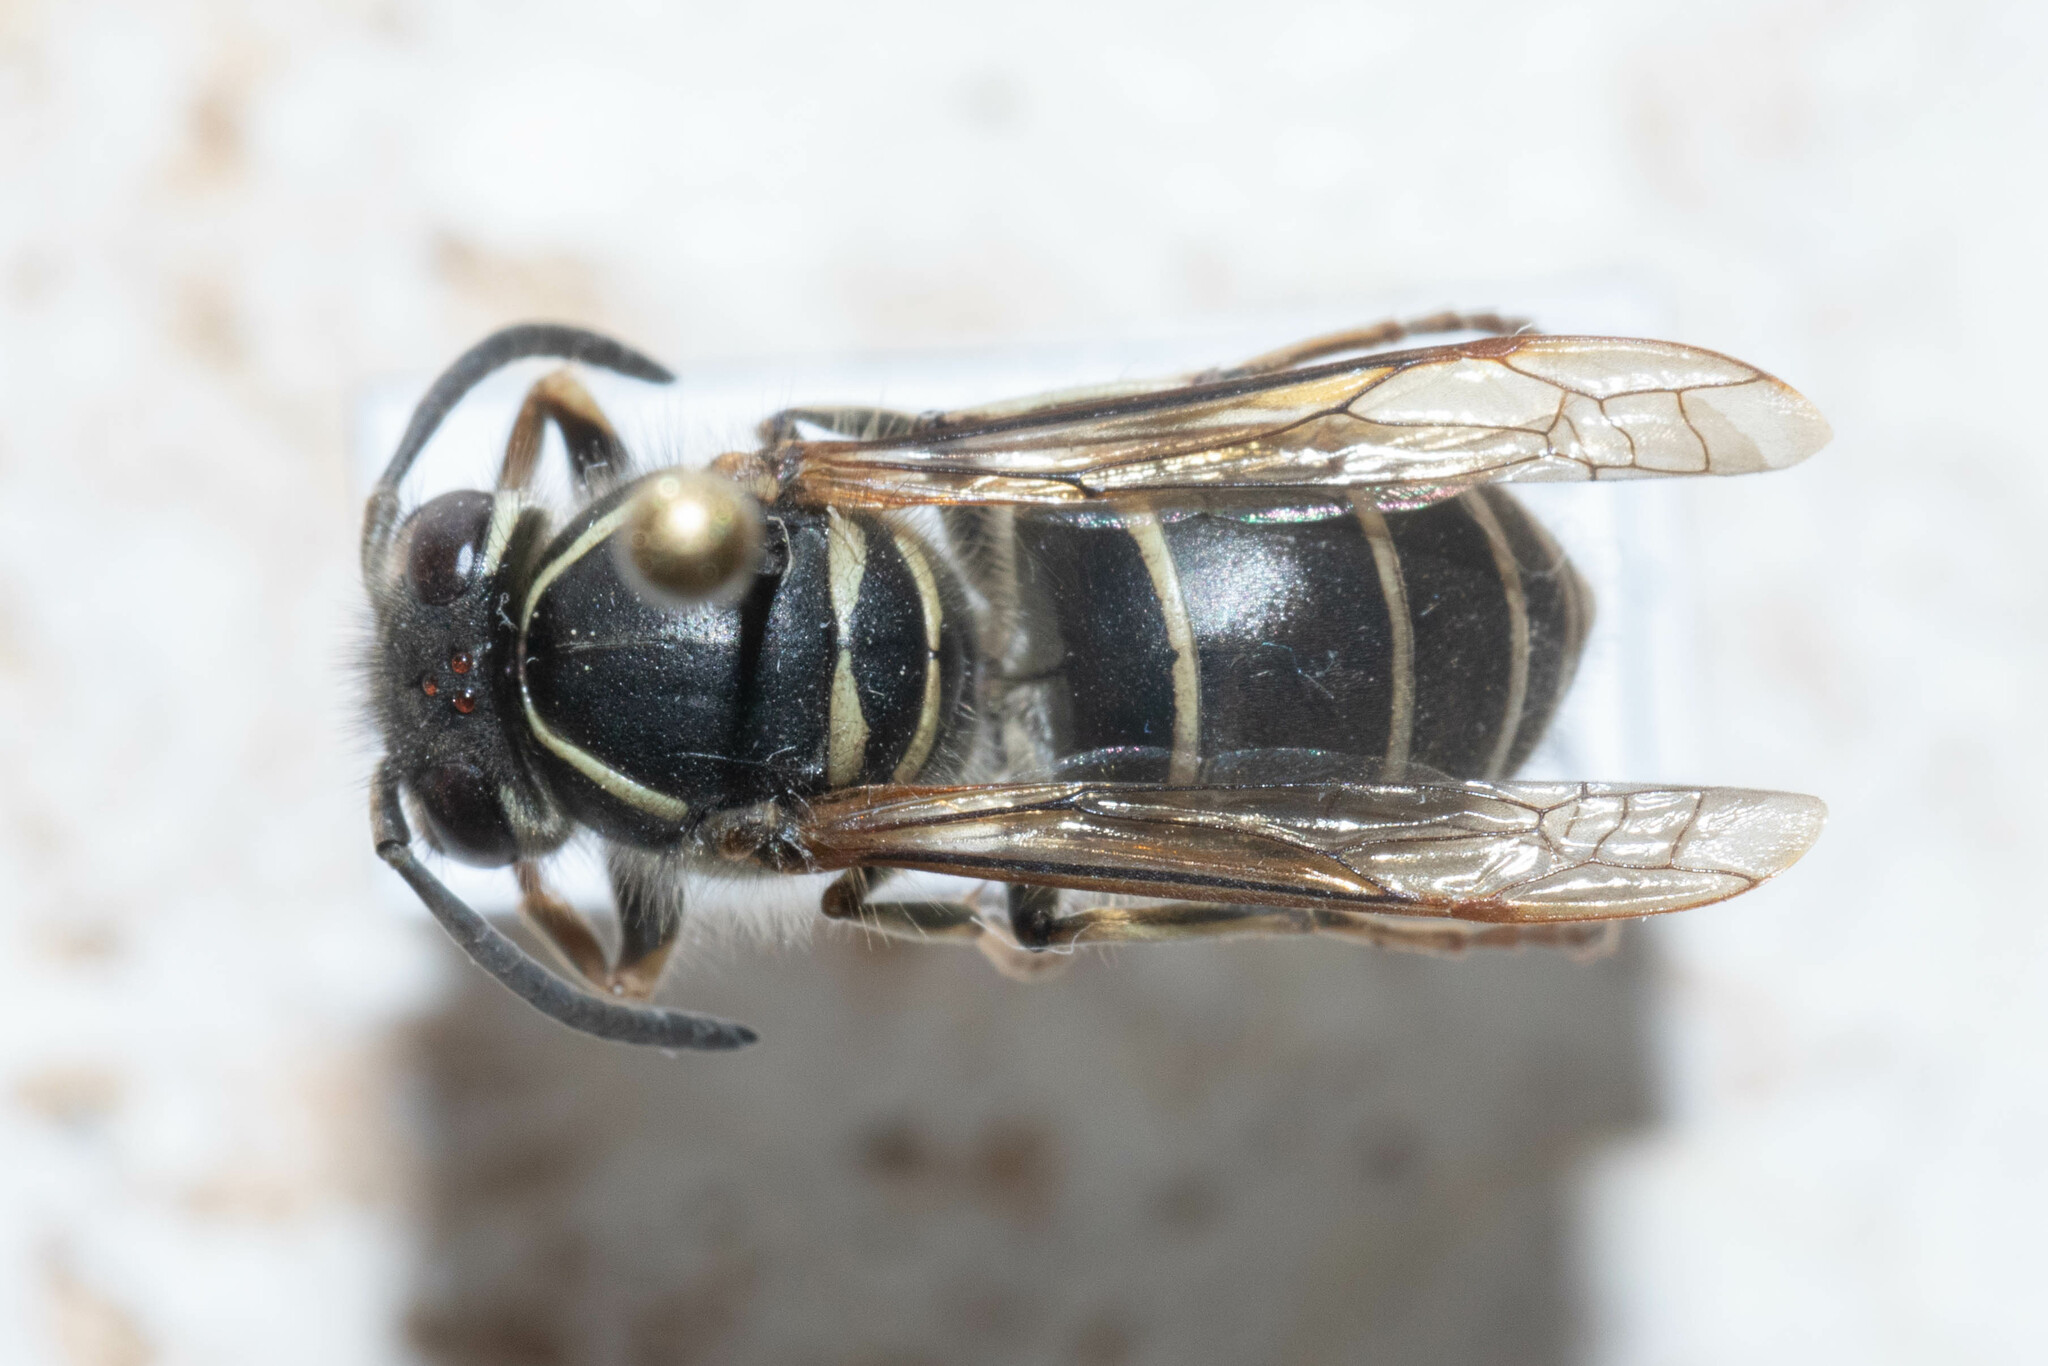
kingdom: Animalia
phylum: Arthropoda
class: Insecta
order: Hymenoptera
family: Vespidae
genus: Vespula
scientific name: Vespula flaviceps
